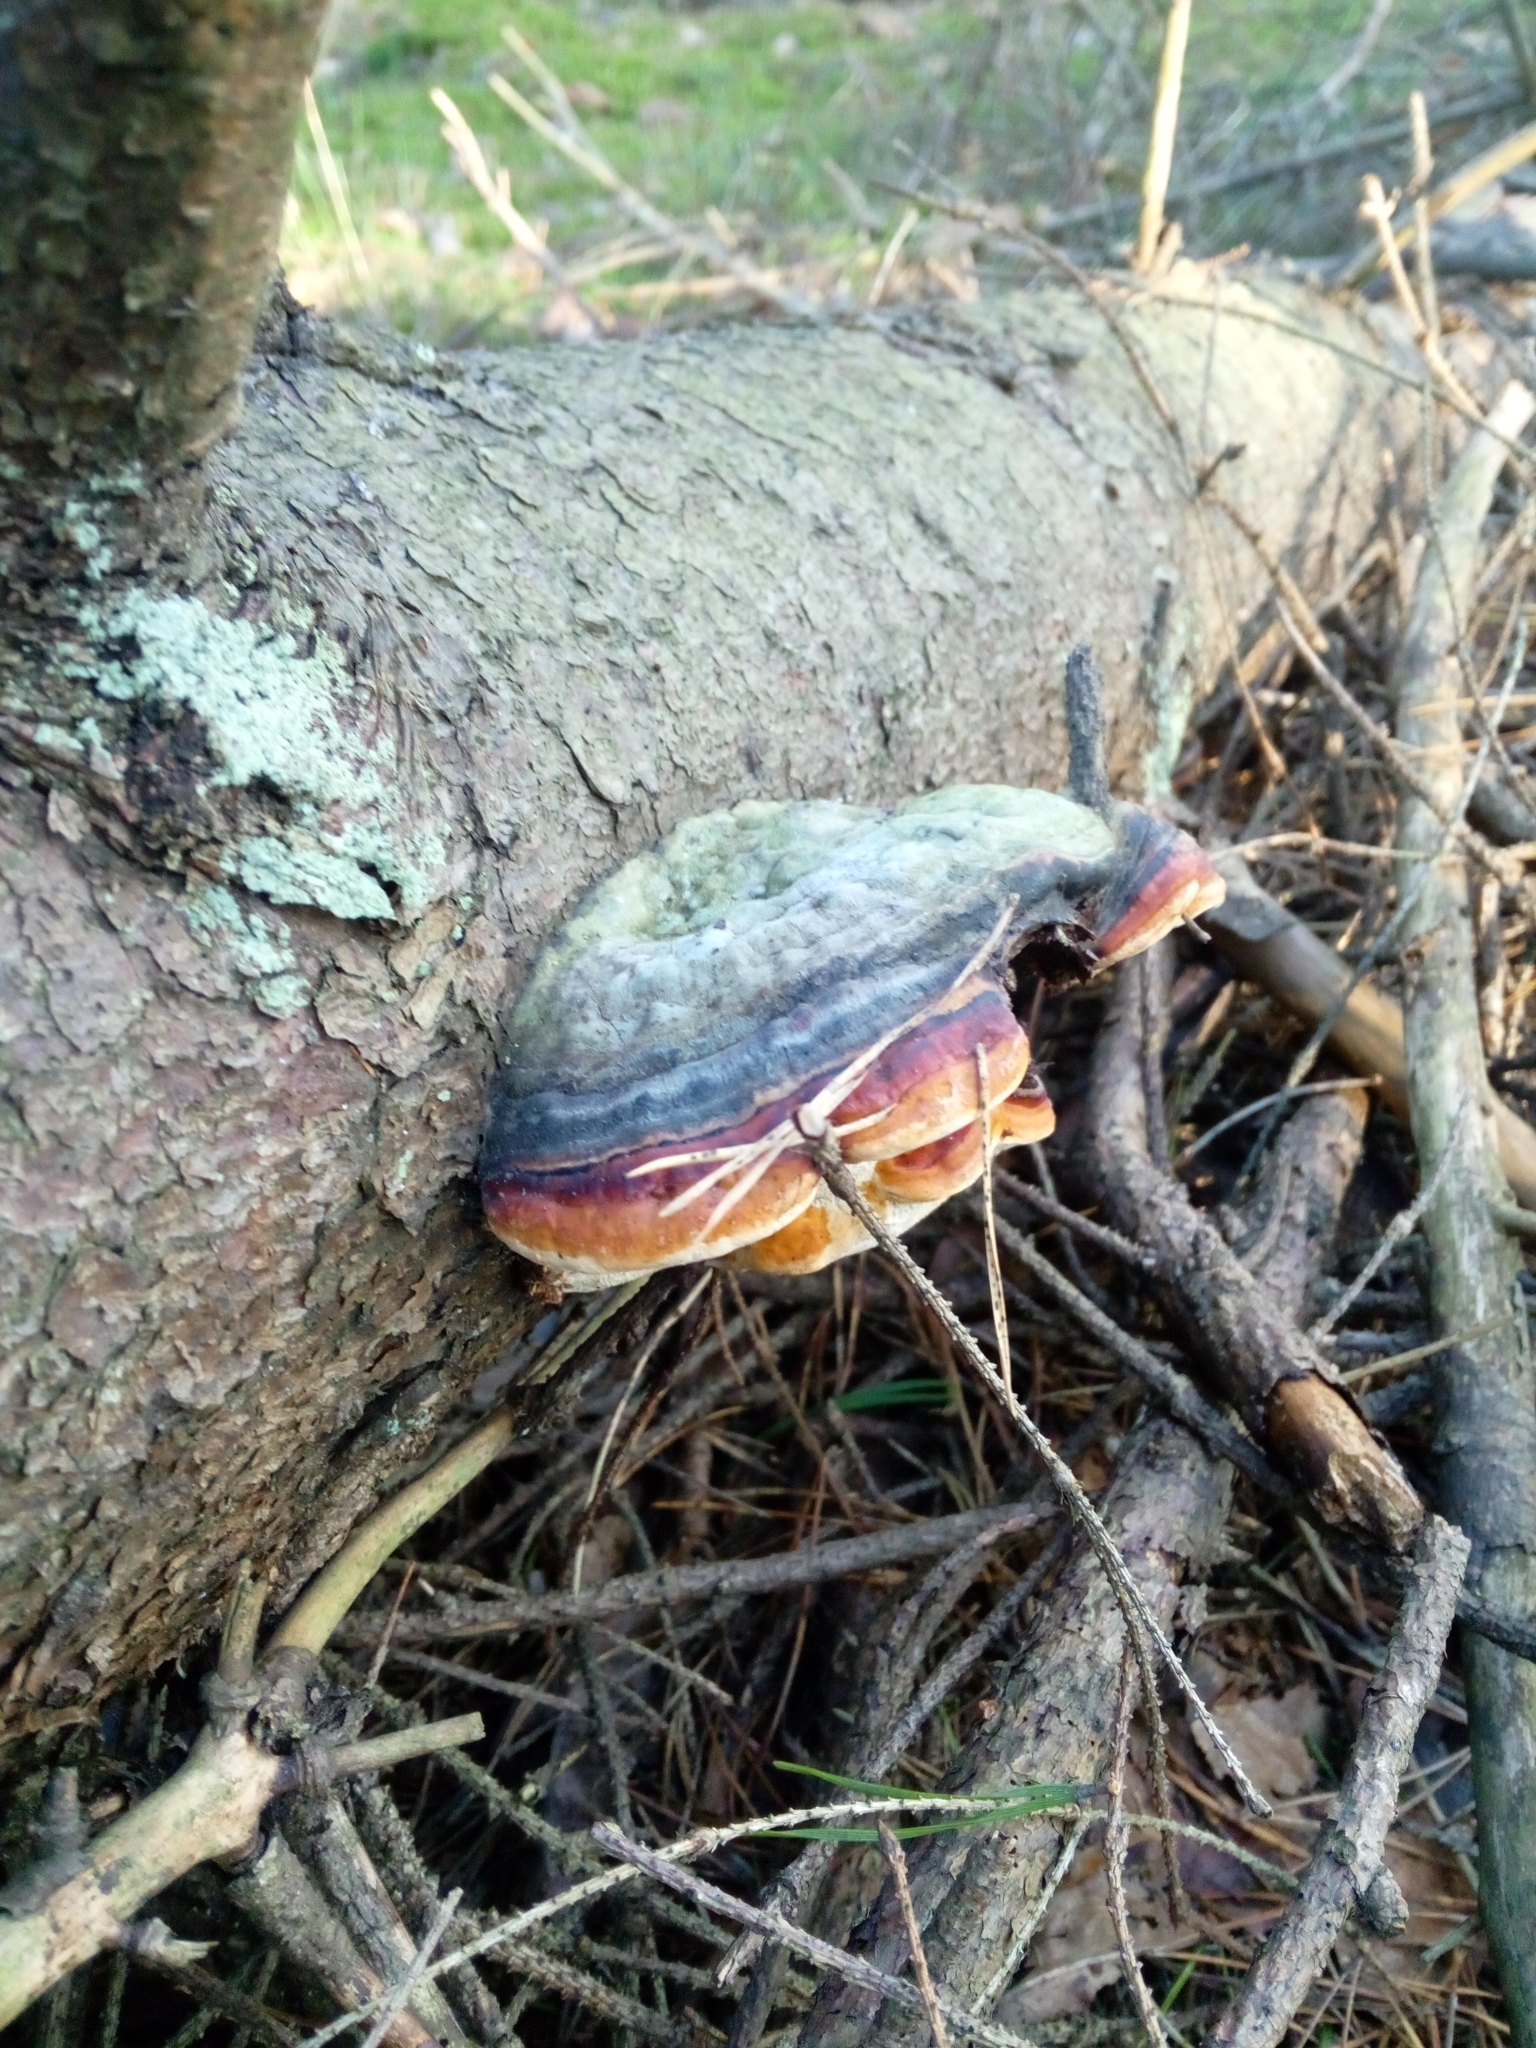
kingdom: Fungi
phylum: Basidiomycota
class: Agaricomycetes
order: Polyporales
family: Fomitopsidaceae
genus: Fomitopsis
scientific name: Fomitopsis pinicola
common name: Red-belted bracket
